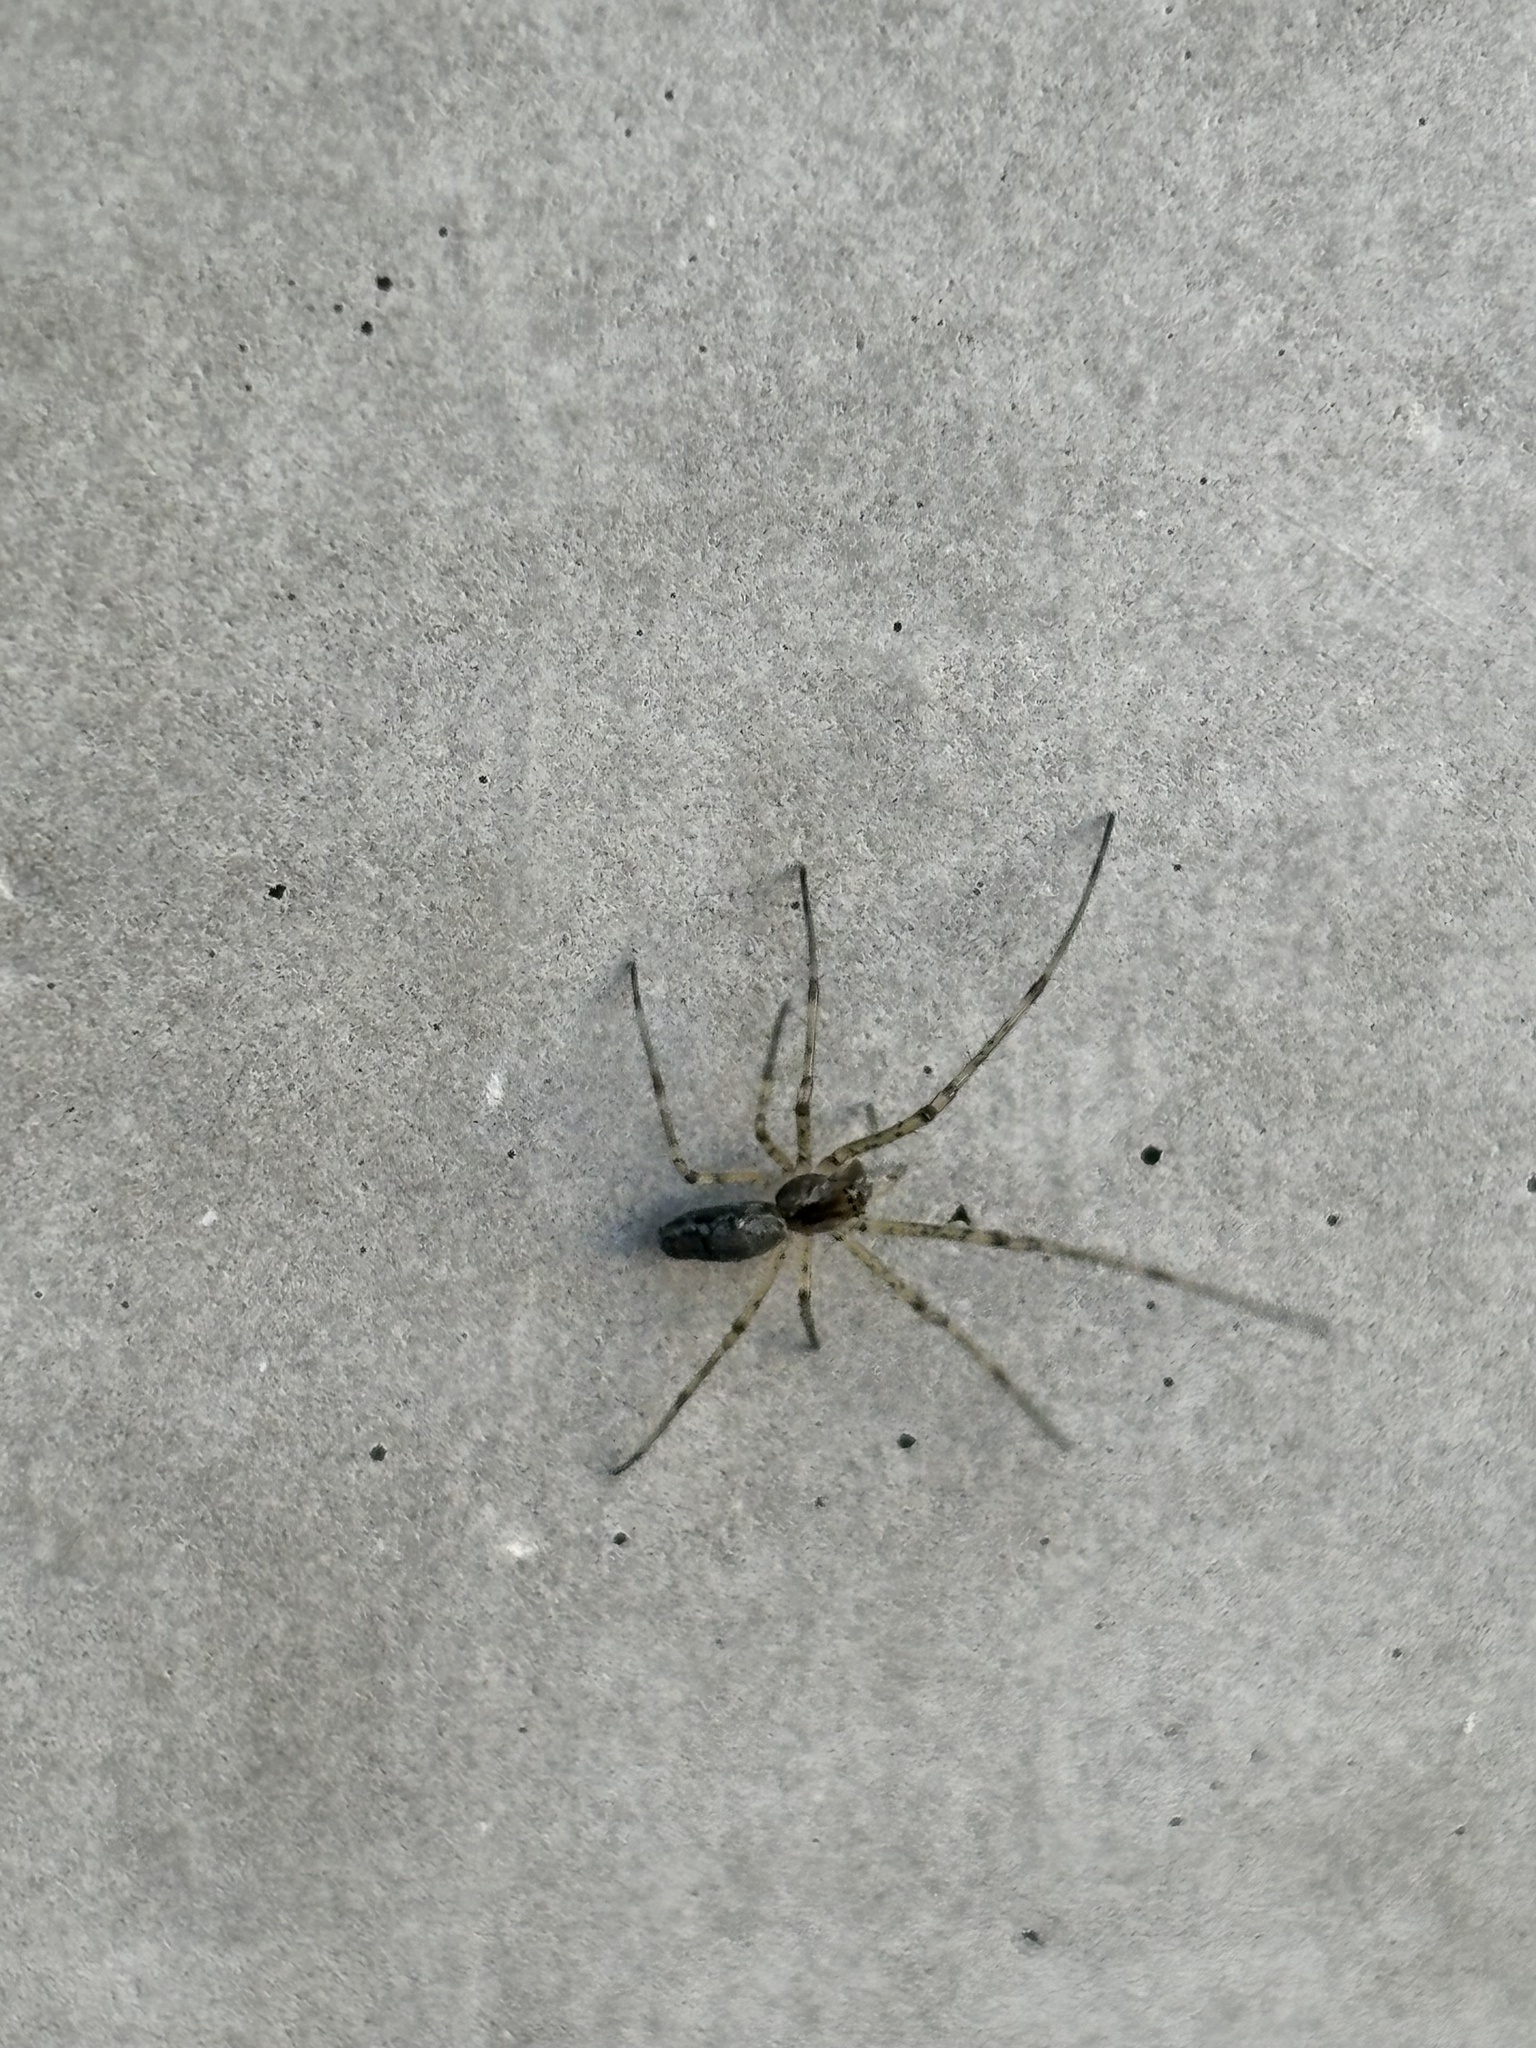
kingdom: Animalia
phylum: Arthropoda
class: Arachnida
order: Araneae
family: Tetragnathidae
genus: Tetragnatha
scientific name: Tetragnatha obtusa
